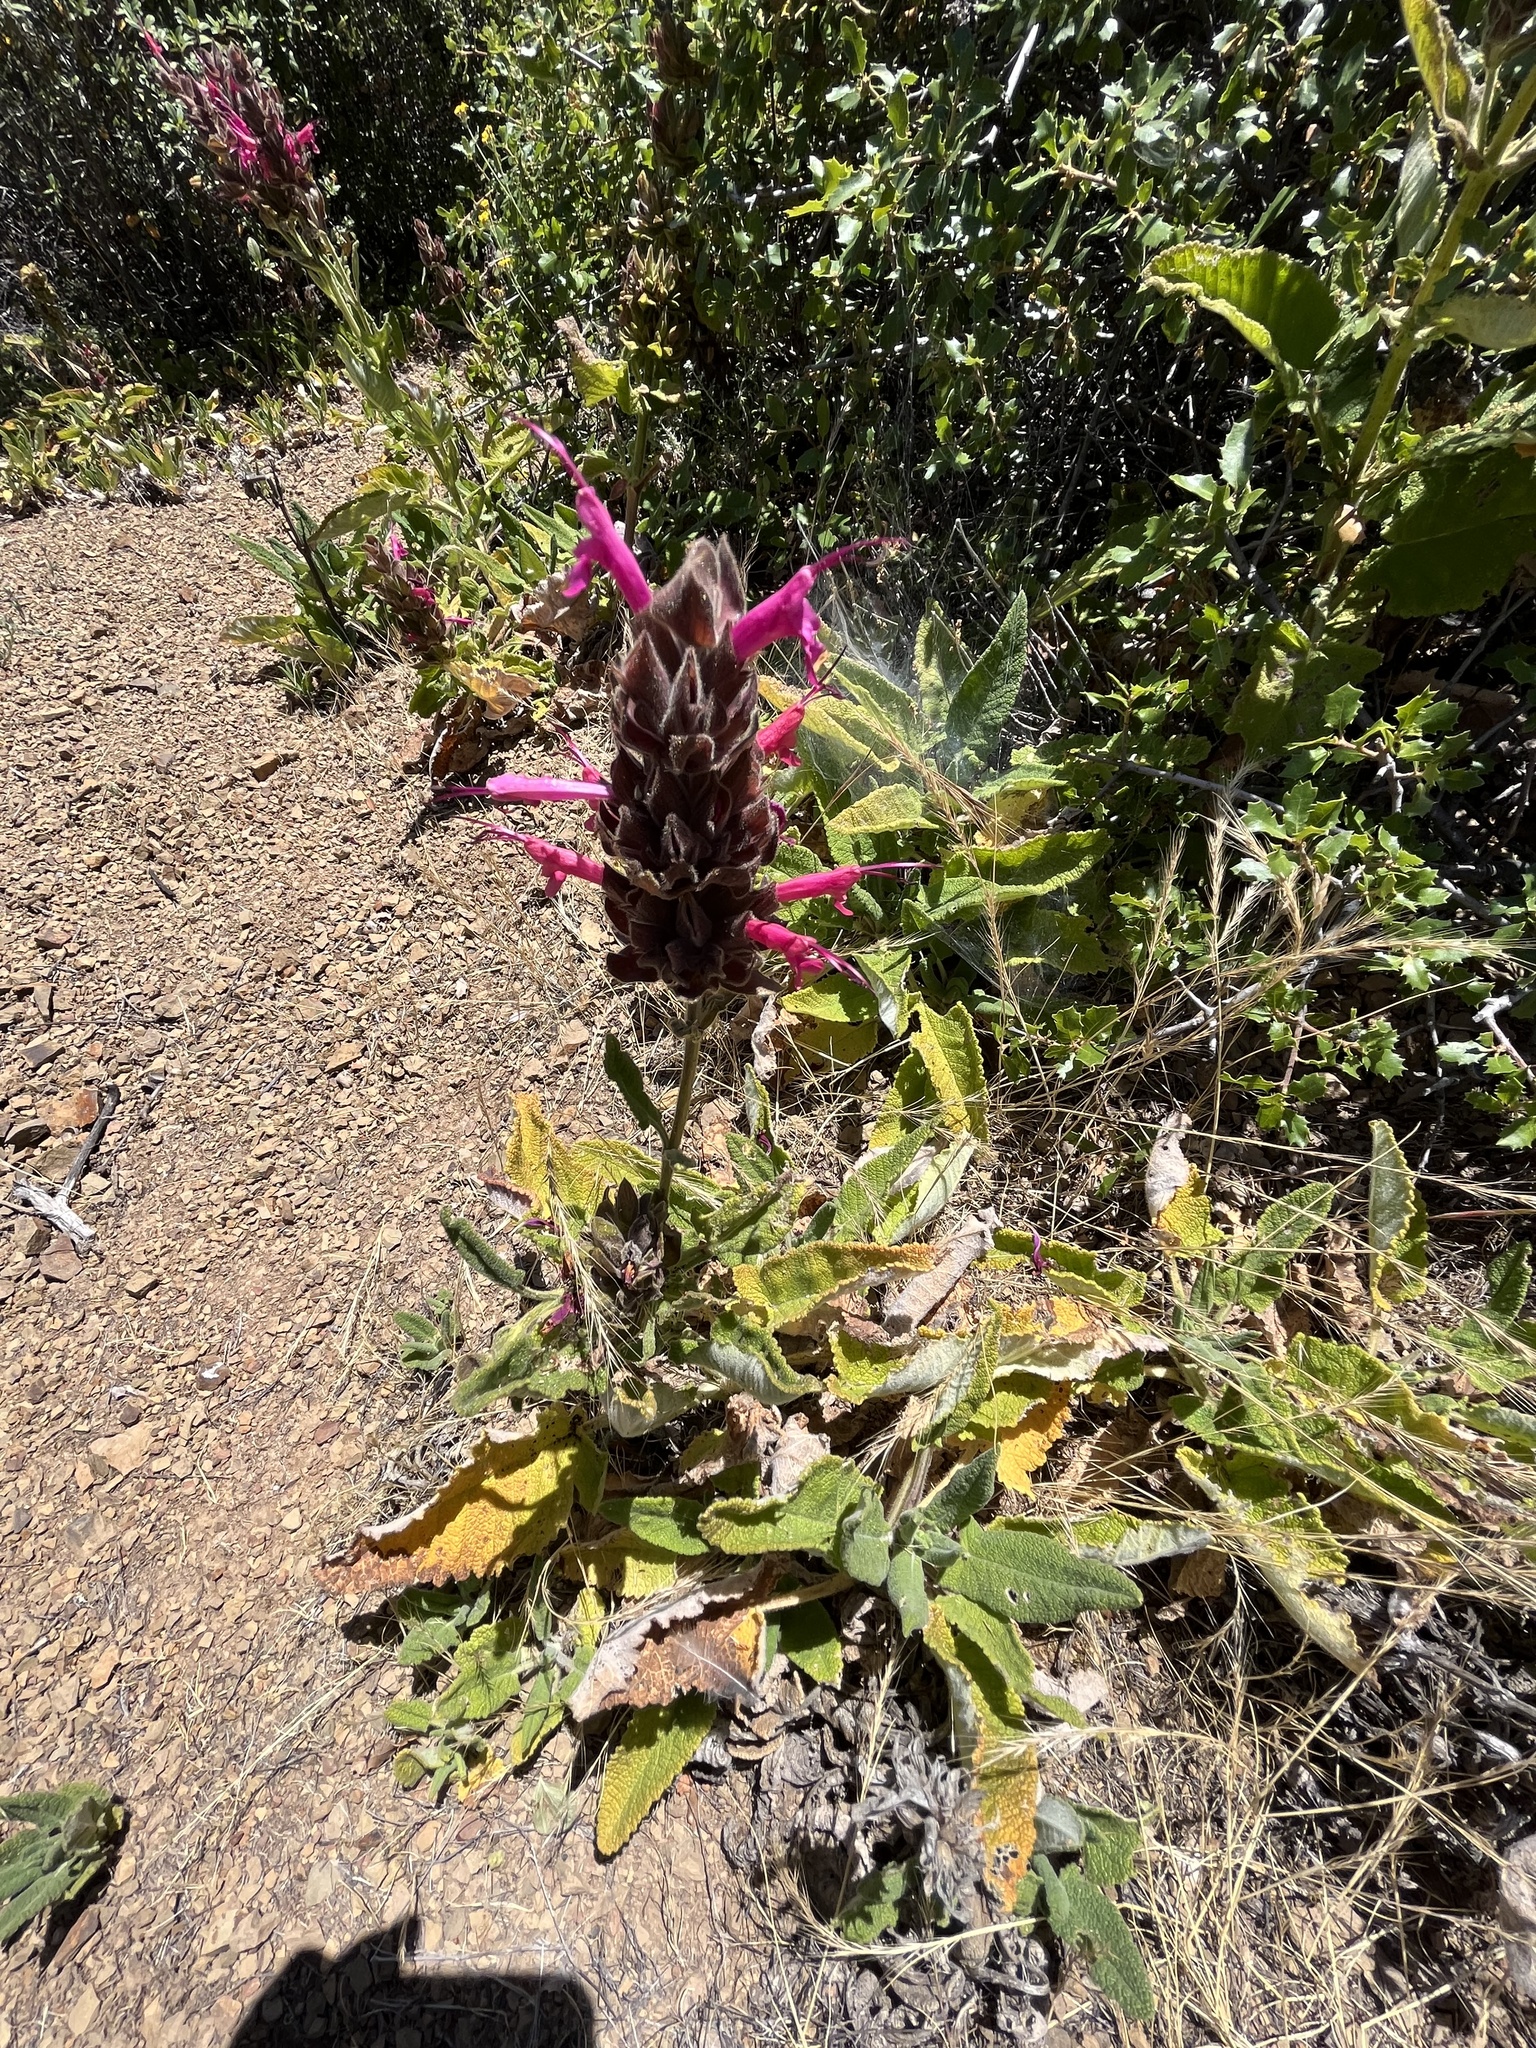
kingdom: Plantae
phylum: Tracheophyta
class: Magnoliopsida
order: Lamiales
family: Lamiaceae
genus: Salvia
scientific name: Salvia spathacea
